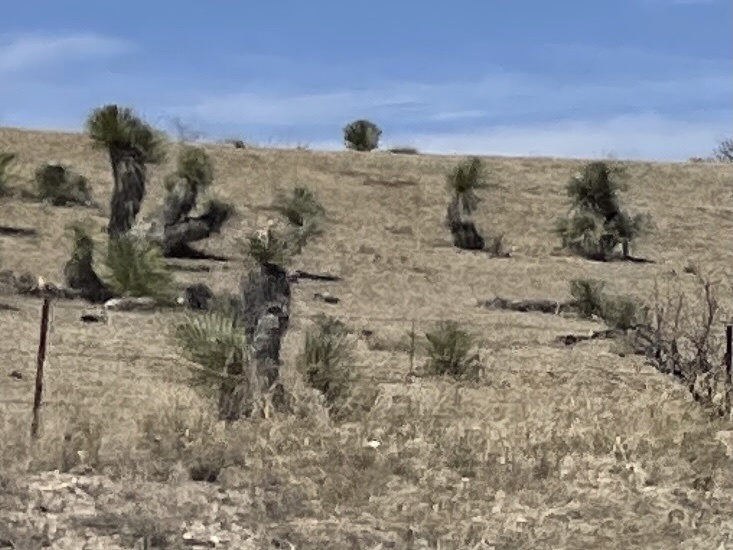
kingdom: Plantae
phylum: Tracheophyta
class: Liliopsida
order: Asparagales
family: Asparagaceae
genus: Yucca
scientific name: Yucca elata
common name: Palmella
